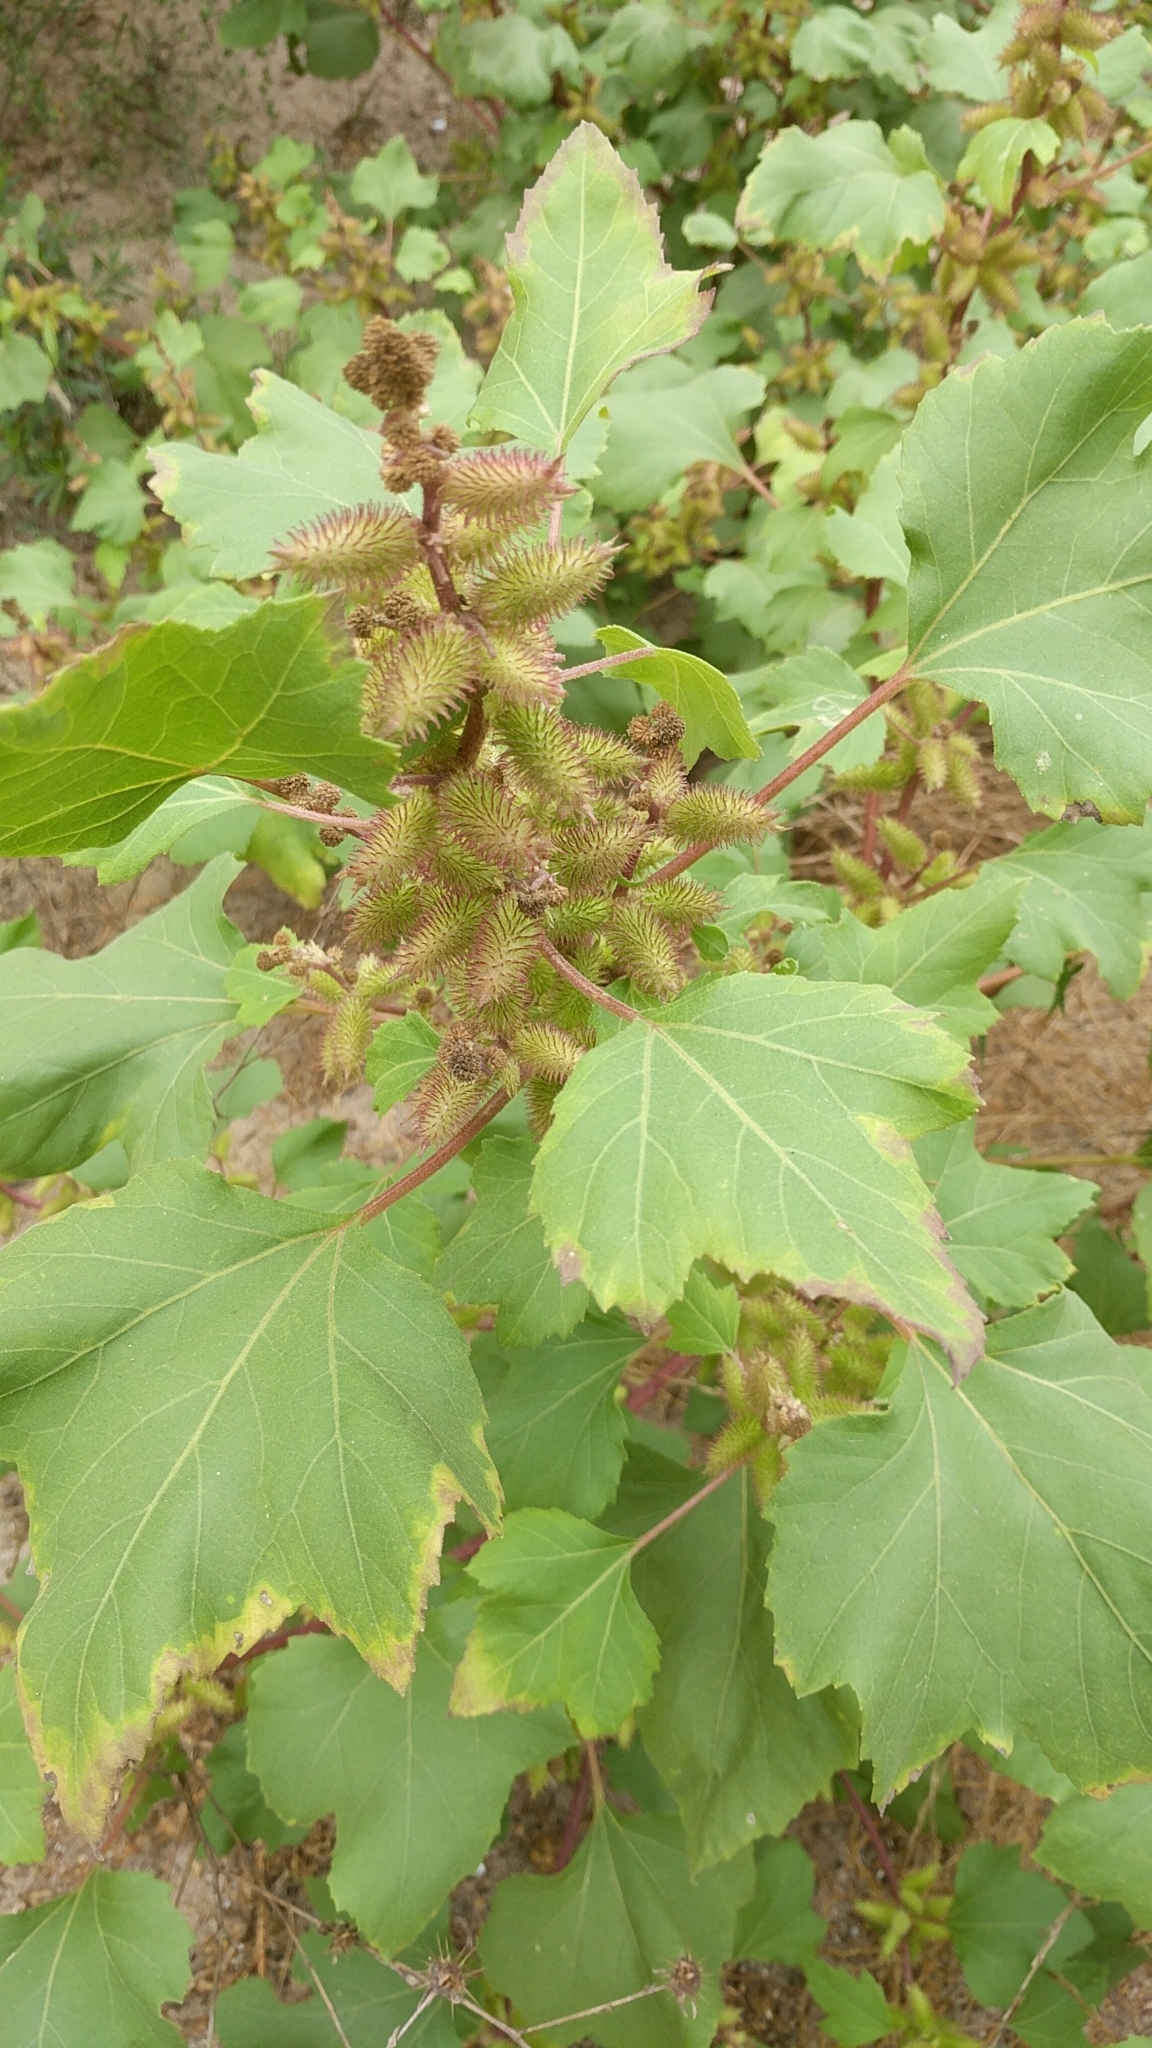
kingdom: Plantae
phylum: Tracheophyta
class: Magnoliopsida
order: Asterales
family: Asteraceae
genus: Xanthium
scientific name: Xanthium strumarium
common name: Rough cocklebur
